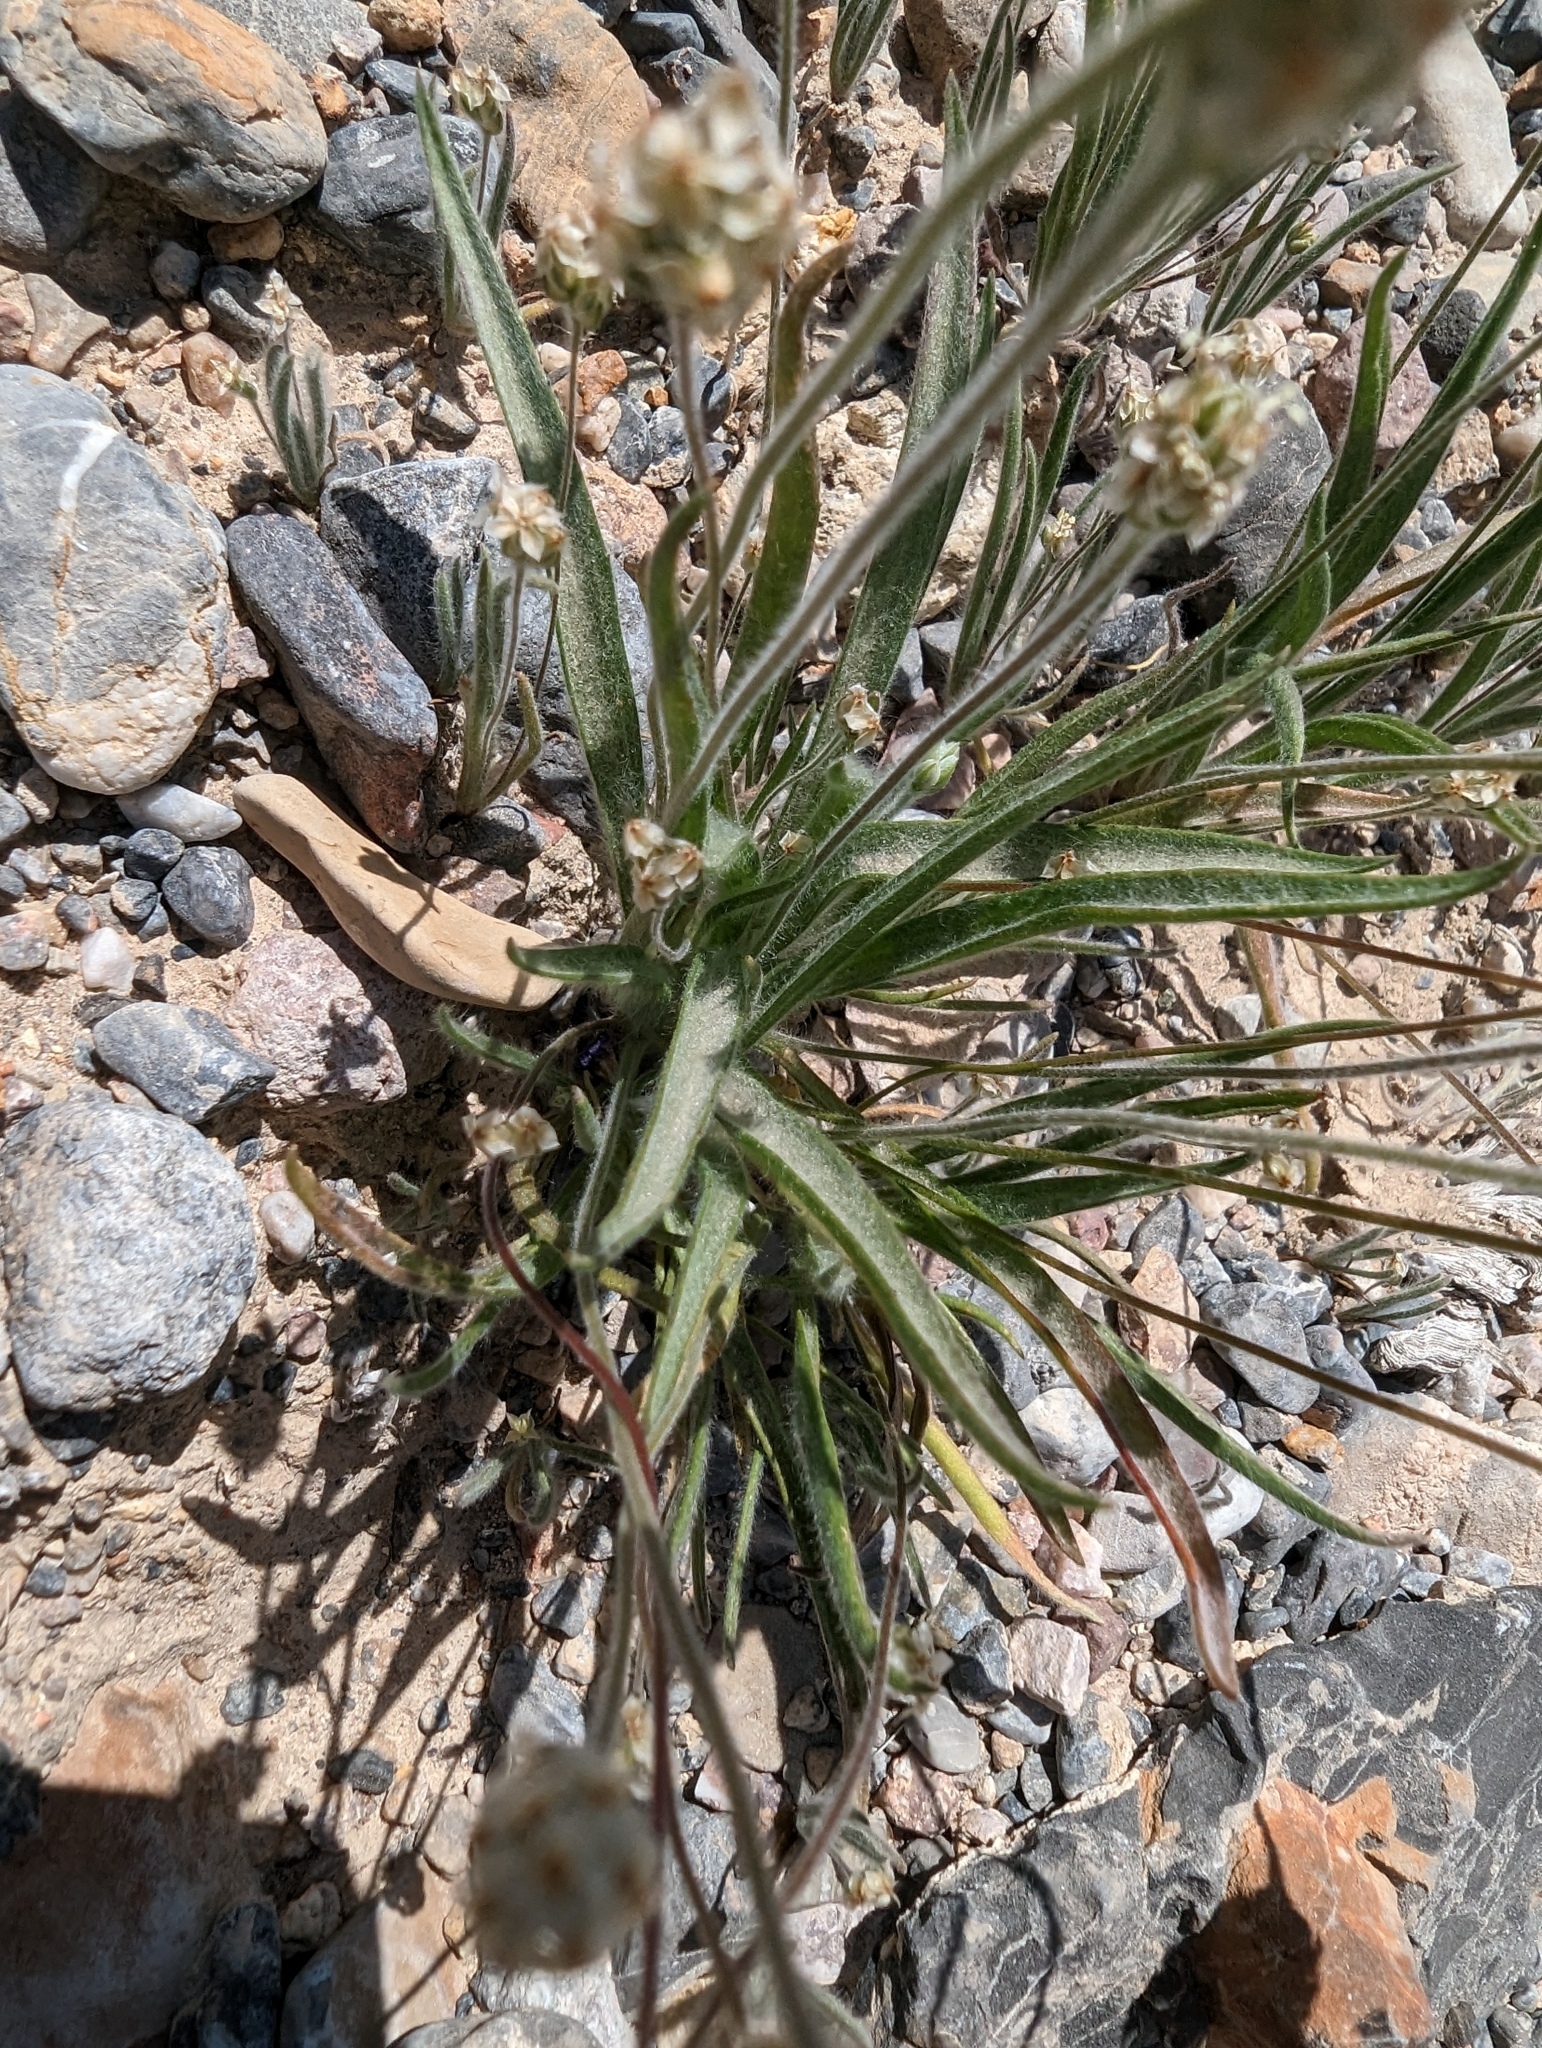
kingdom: Plantae
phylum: Tracheophyta
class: Magnoliopsida
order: Lamiales
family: Plantaginaceae
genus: Plantago
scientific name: Plantago ovata
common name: Blond plantain
